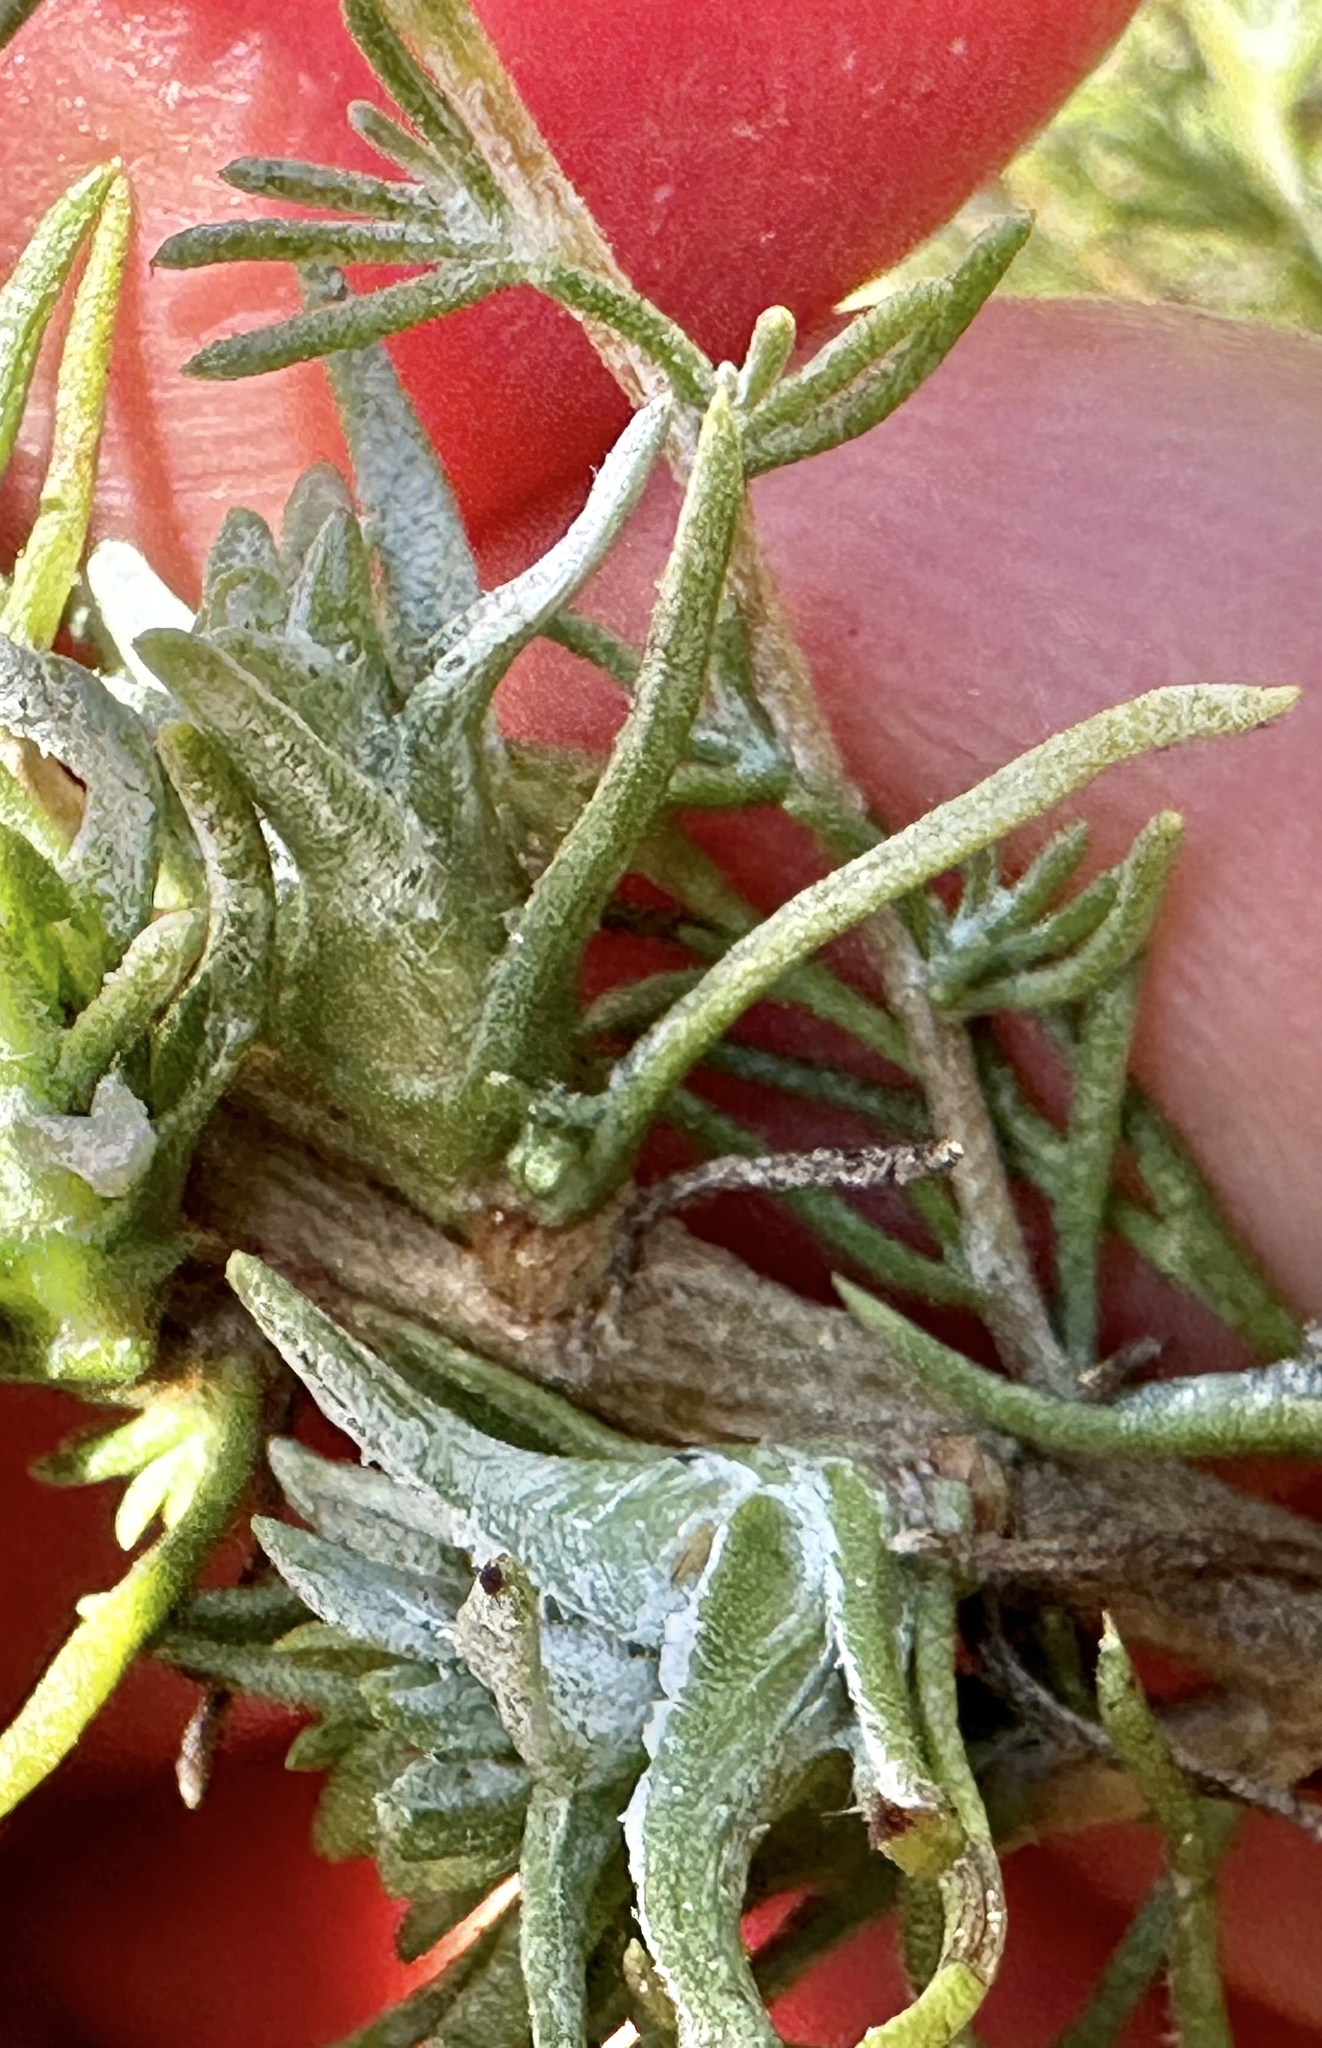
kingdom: Animalia
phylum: Arthropoda
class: Insecta
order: Diptera
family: Cecidomyiidae
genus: Rhopalomyia
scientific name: Rhopalomyia ericameriae
